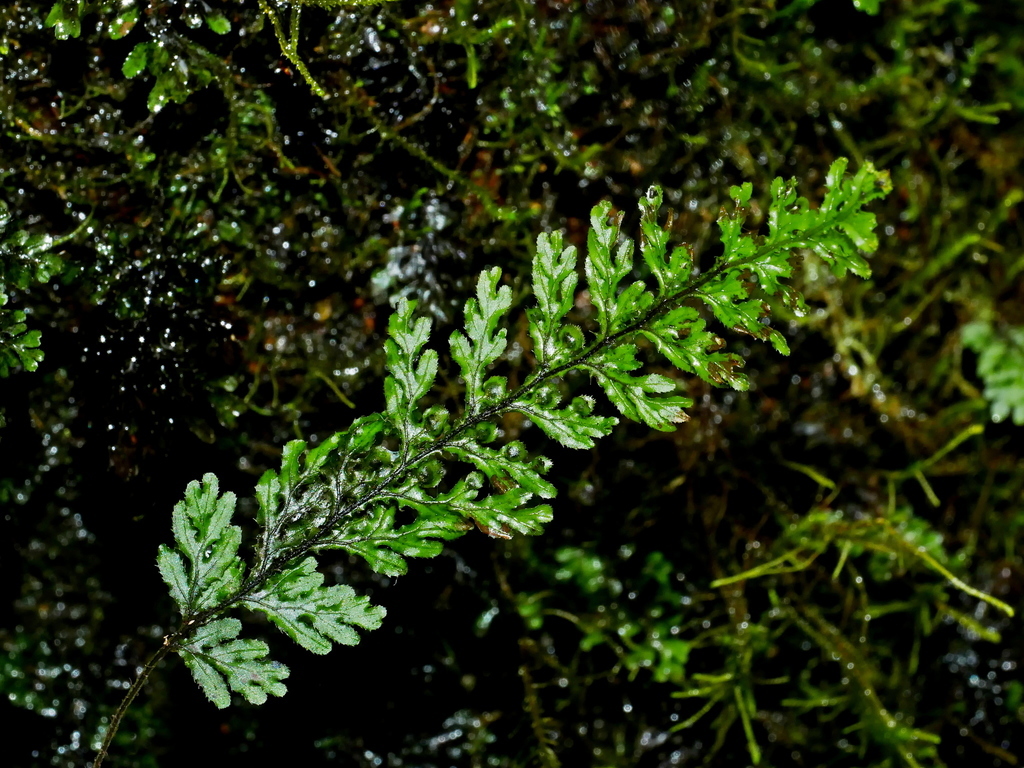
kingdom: Plantae
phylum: Tracheophyta
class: Polypodiopsida
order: Hymenophyllales
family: Hymenophyllaceae
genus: Hymenophyllum
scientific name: Hymenophyllum okadae
